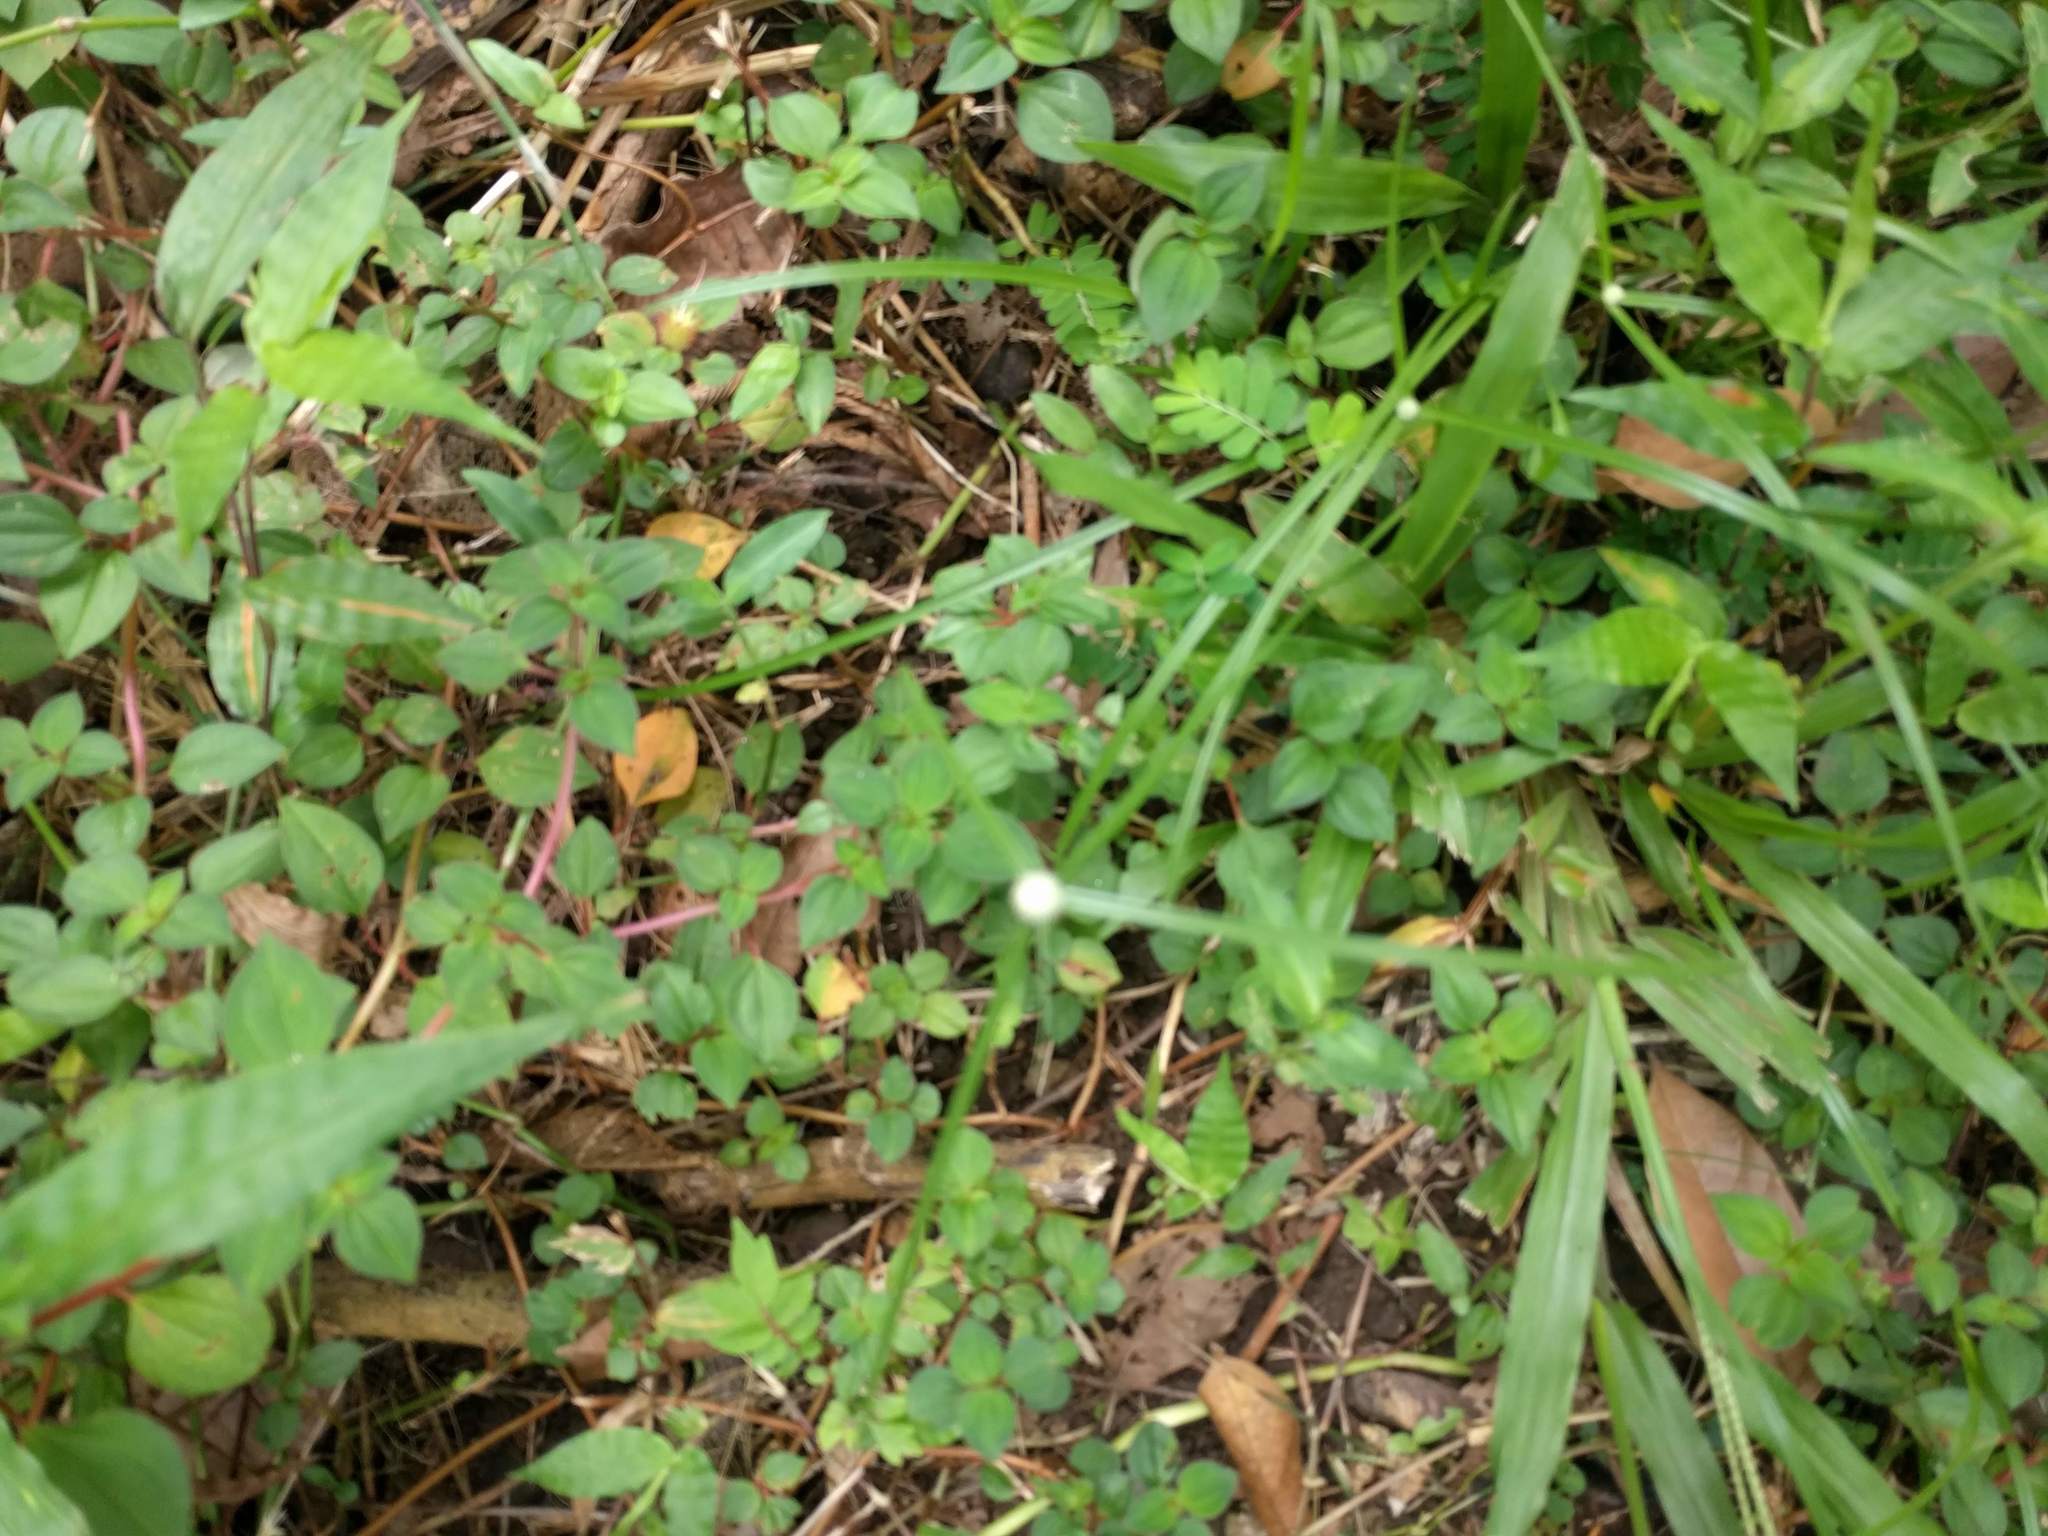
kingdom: Plantae
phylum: Tracheophyta
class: Liliopsida
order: Poales
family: Cyperaceae
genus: Cyperus
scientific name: Cyperus mindorensis
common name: Flatsedge
